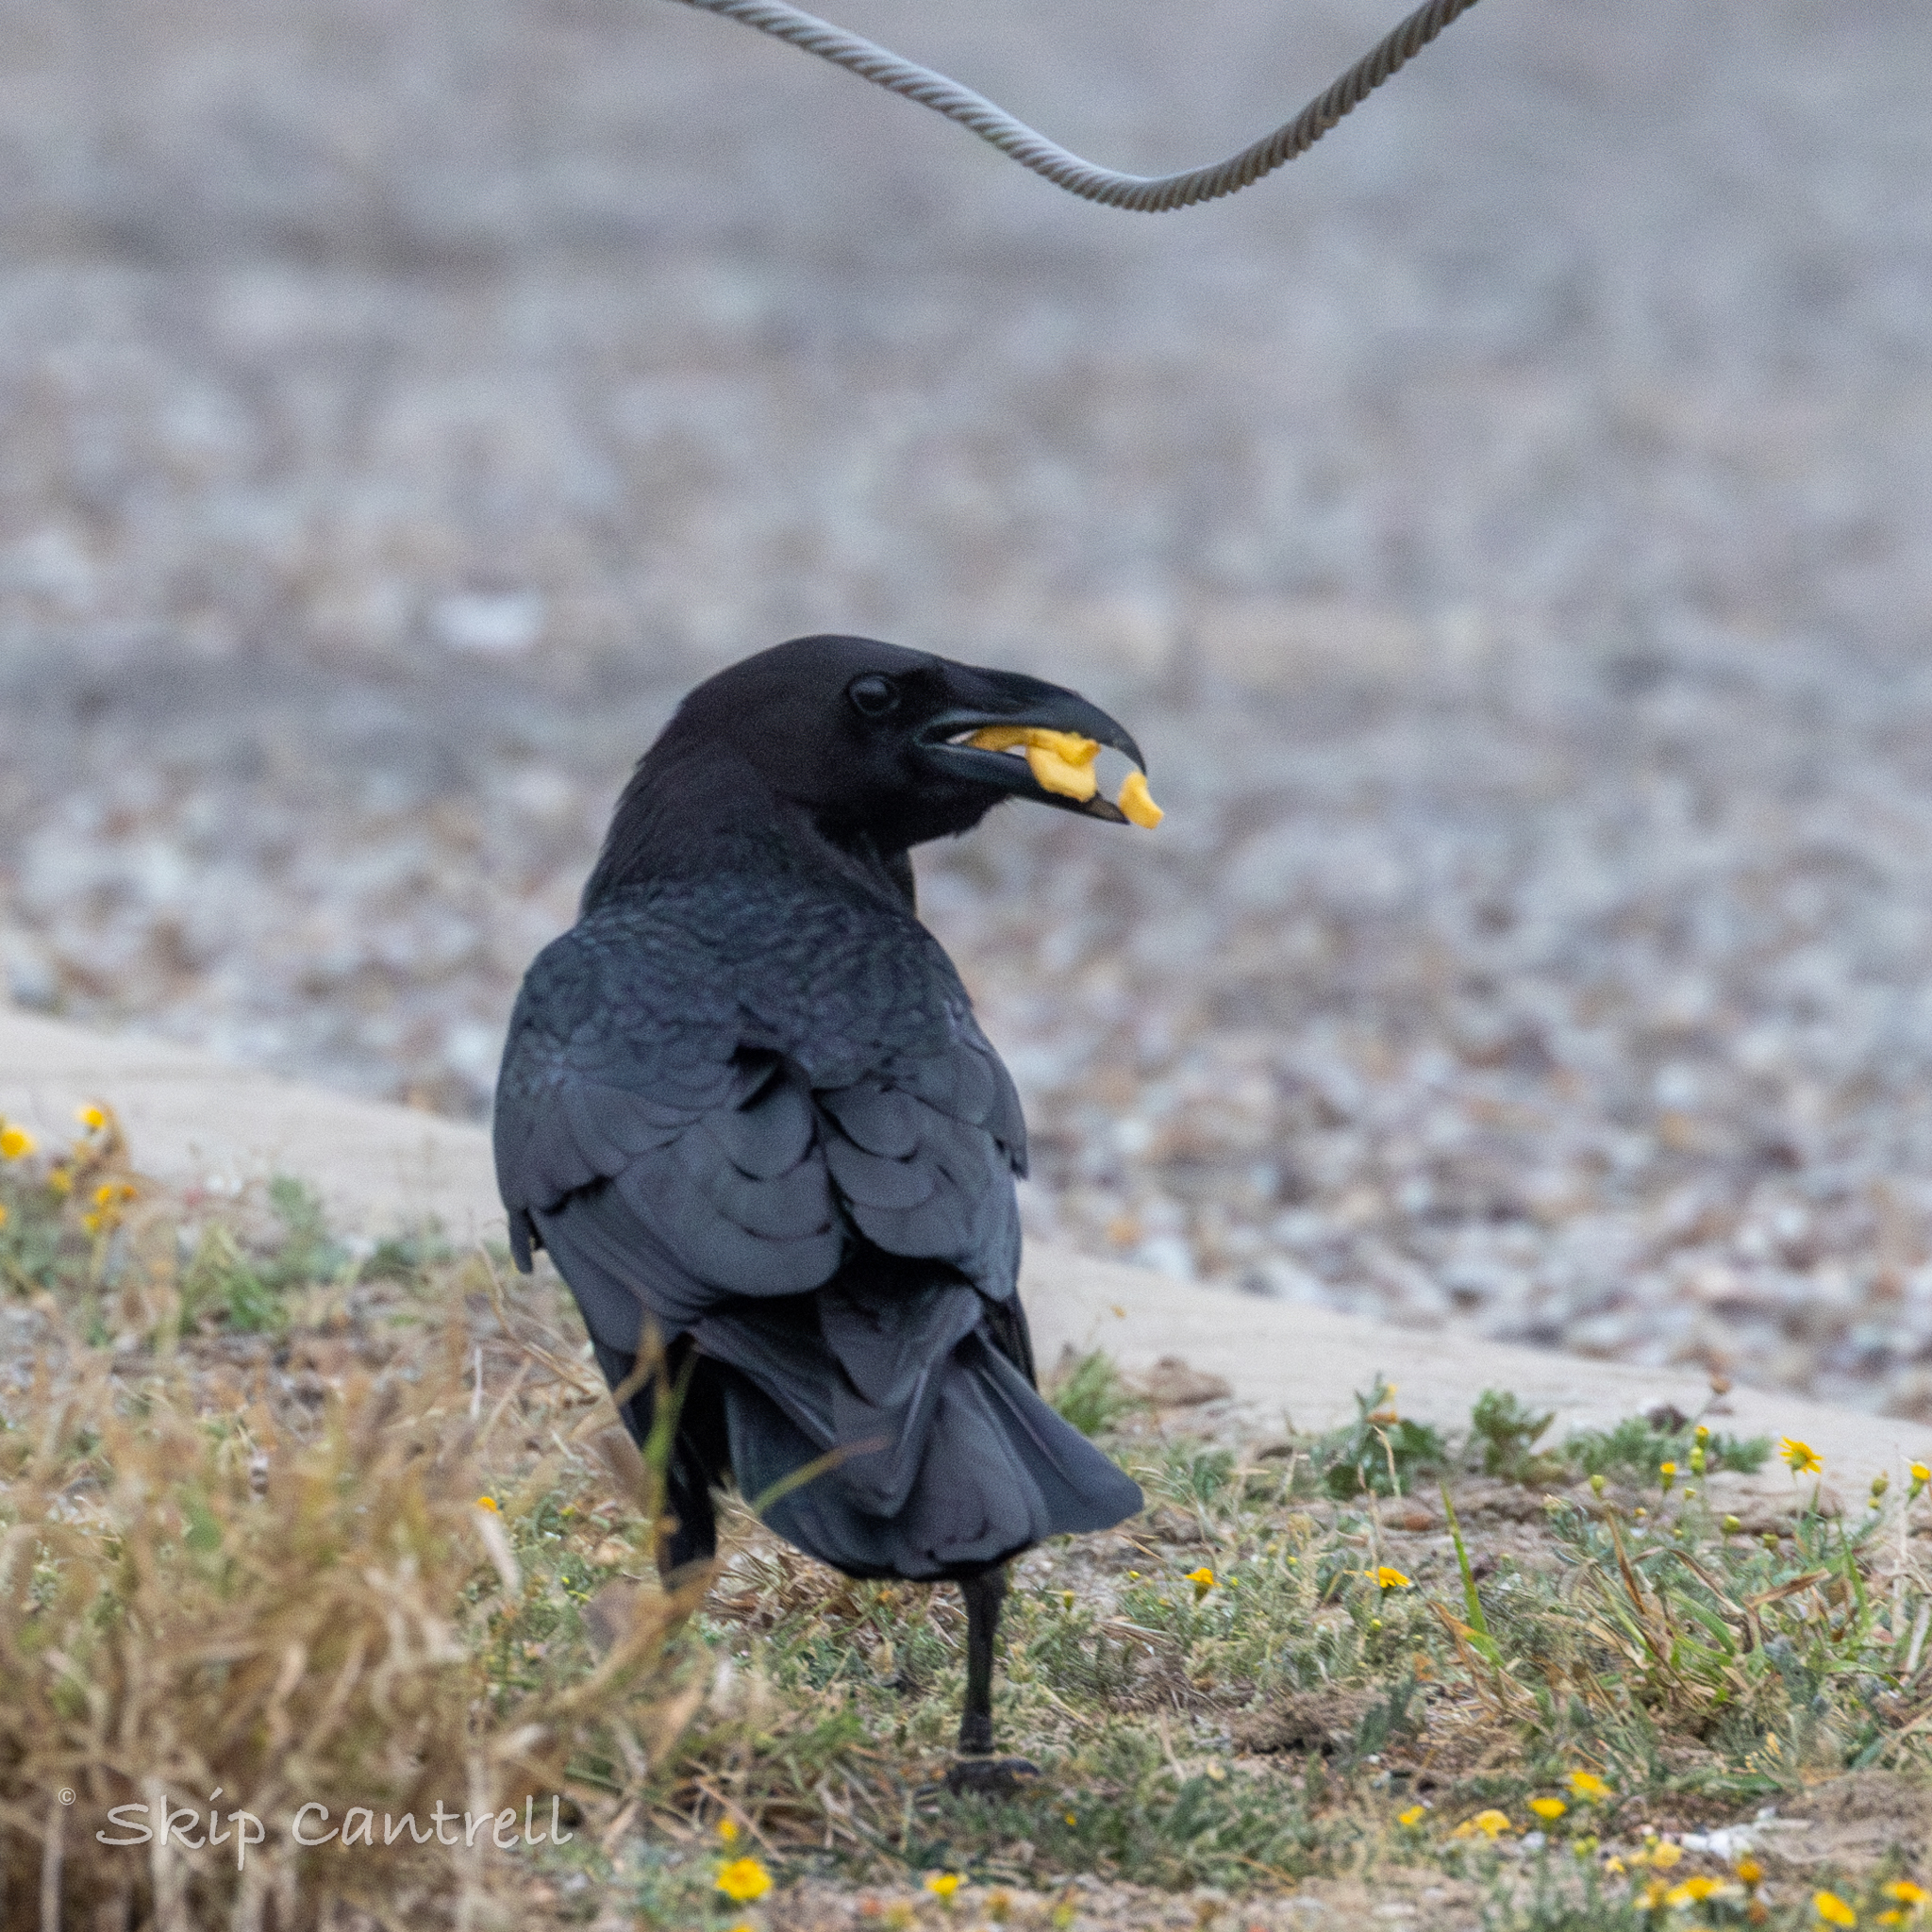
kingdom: Animalia
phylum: Chordata
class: Aves
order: Passeriformes
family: Corvidae
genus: Corvus
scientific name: Corvus cryptoleucus
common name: Chihuahuan raven
